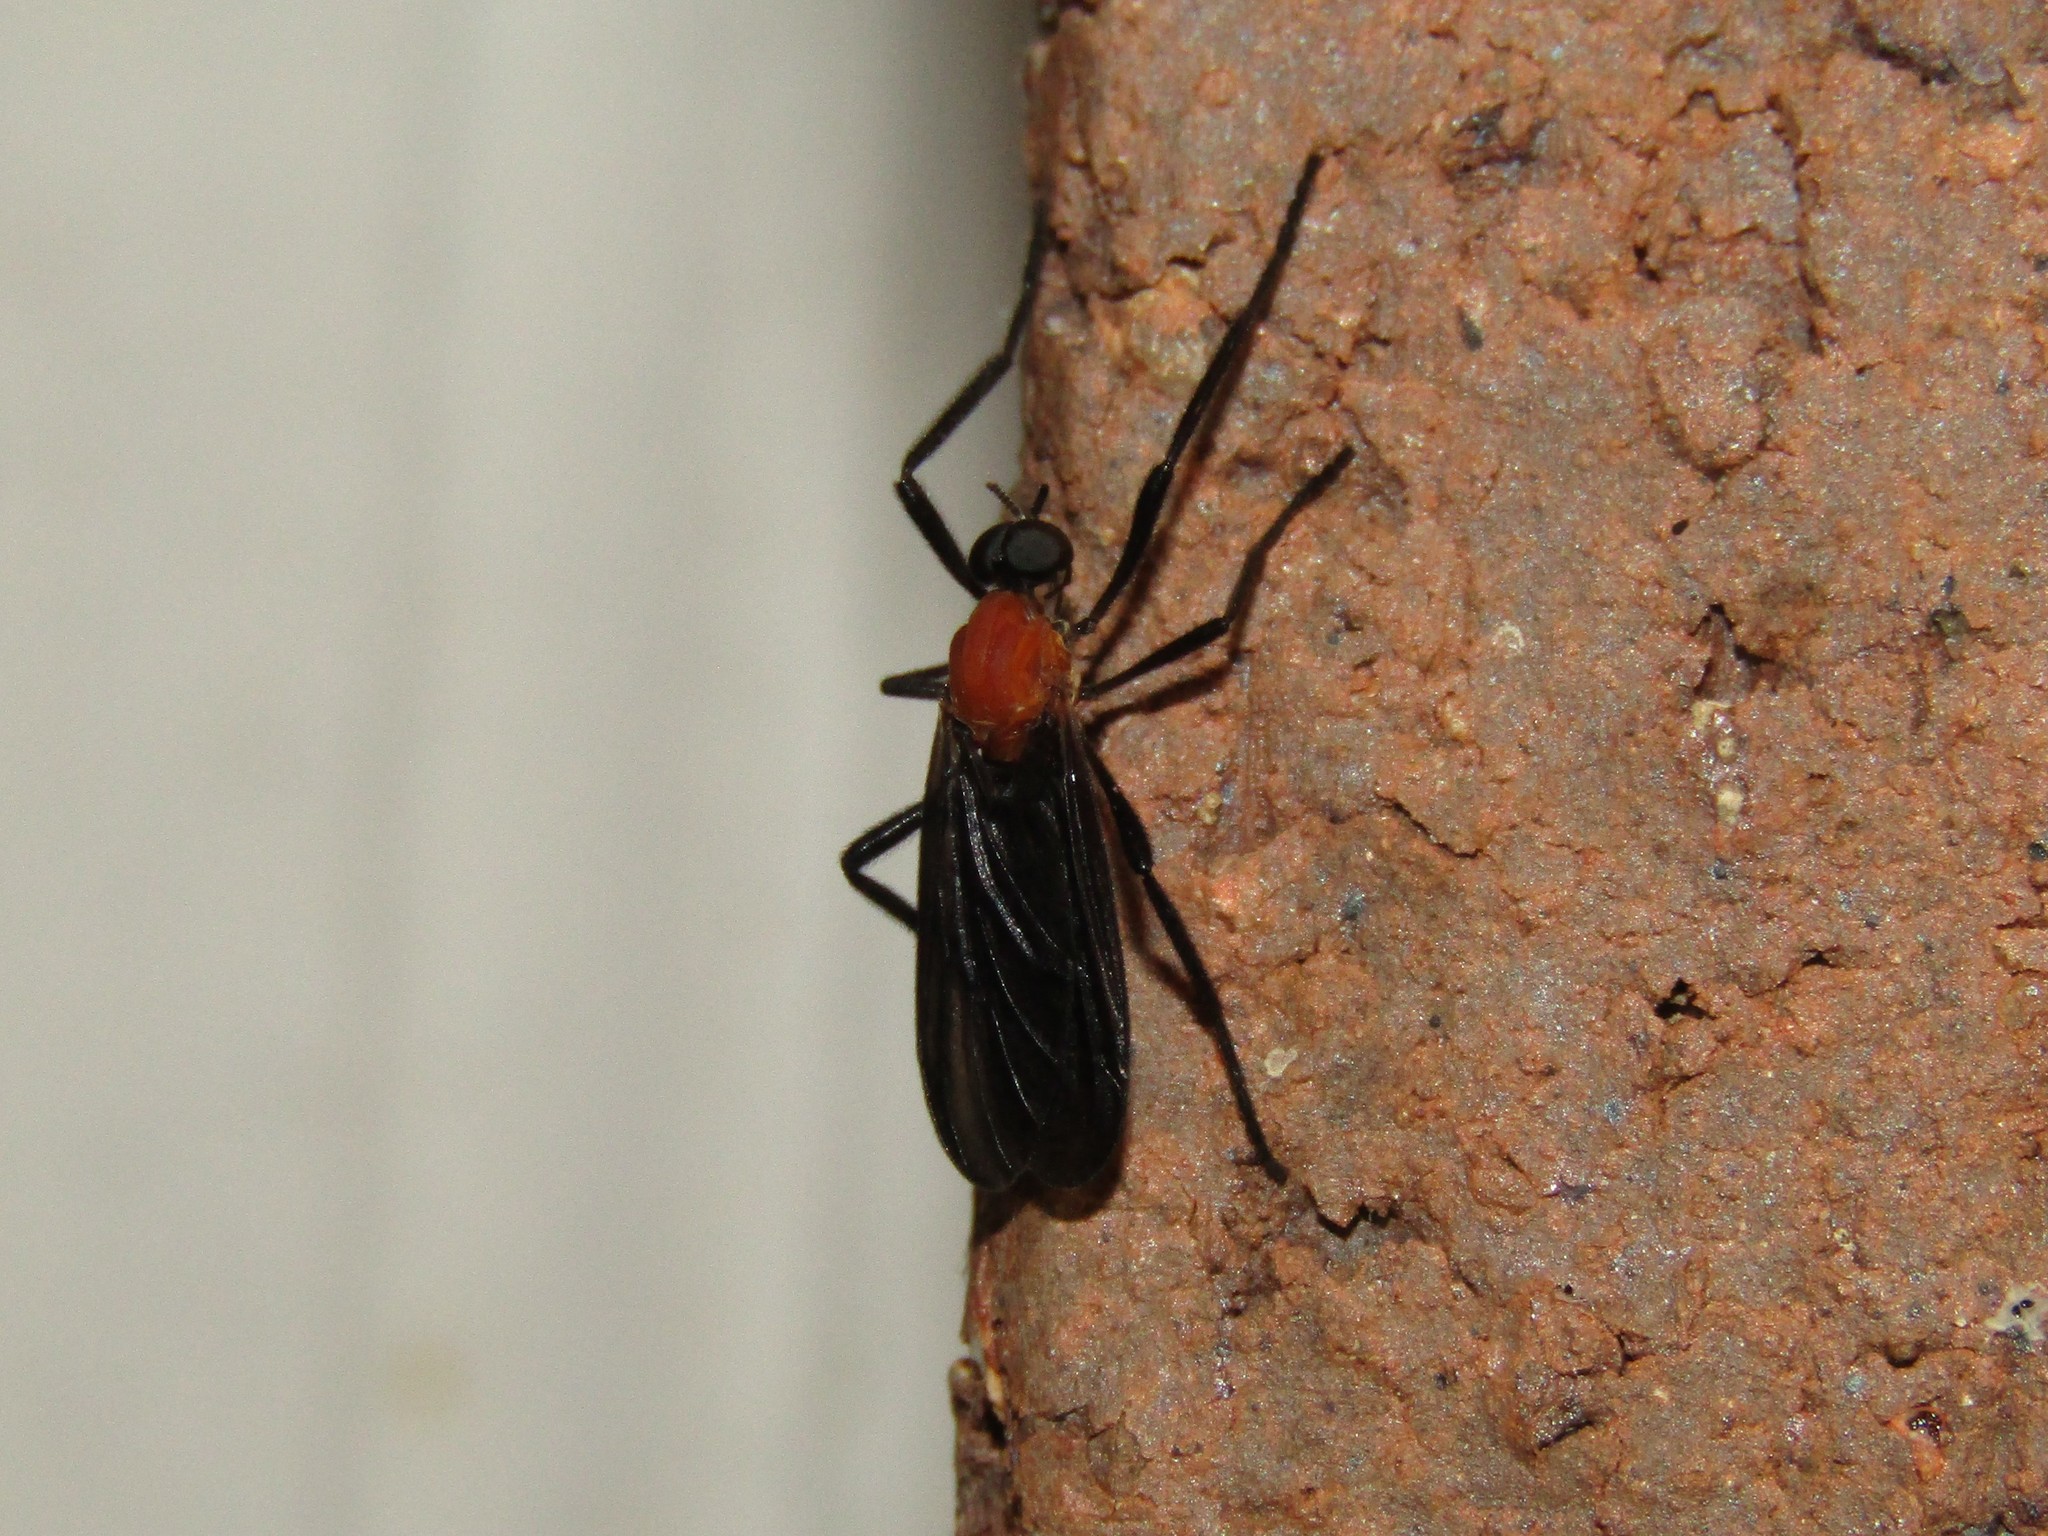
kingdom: Animalia
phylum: Arthropoda
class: Insecta
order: Diptera
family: Bibionidae
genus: Plecia
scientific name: Plecia americana
